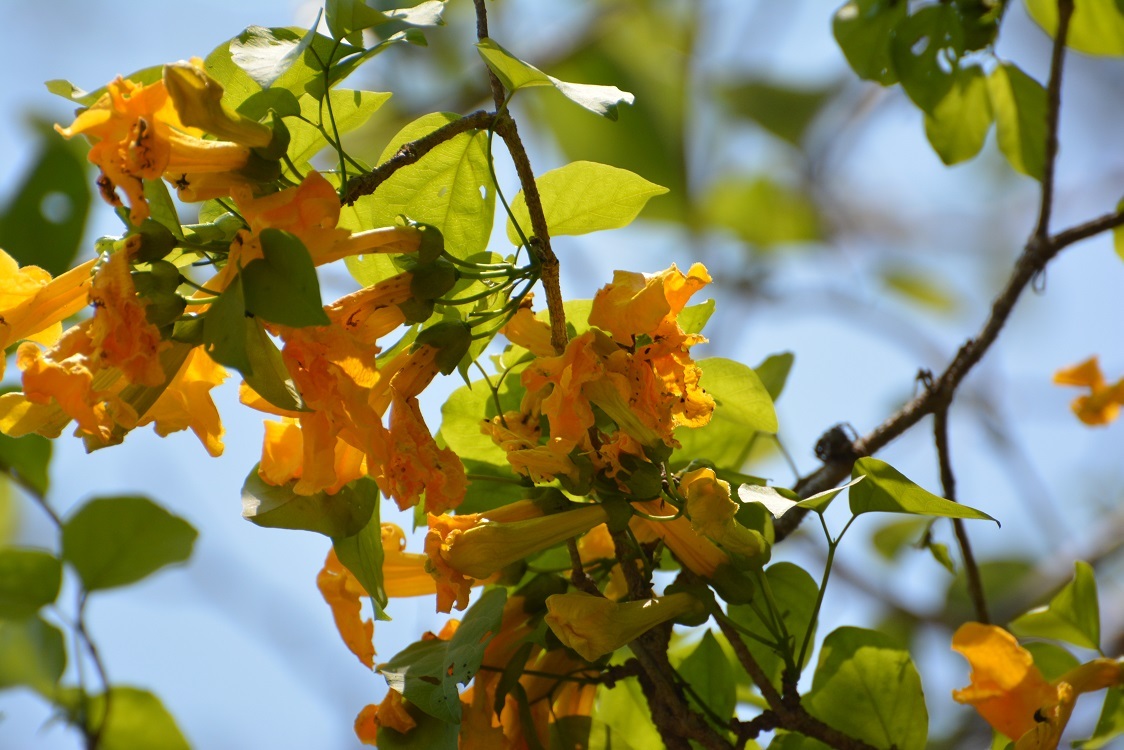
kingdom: Plantae
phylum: Tracheophyta
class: Magnoliopsida
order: Lamiales
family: Bignoniaceae
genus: Dolichandra
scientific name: Dolichandra quadrivalvis
